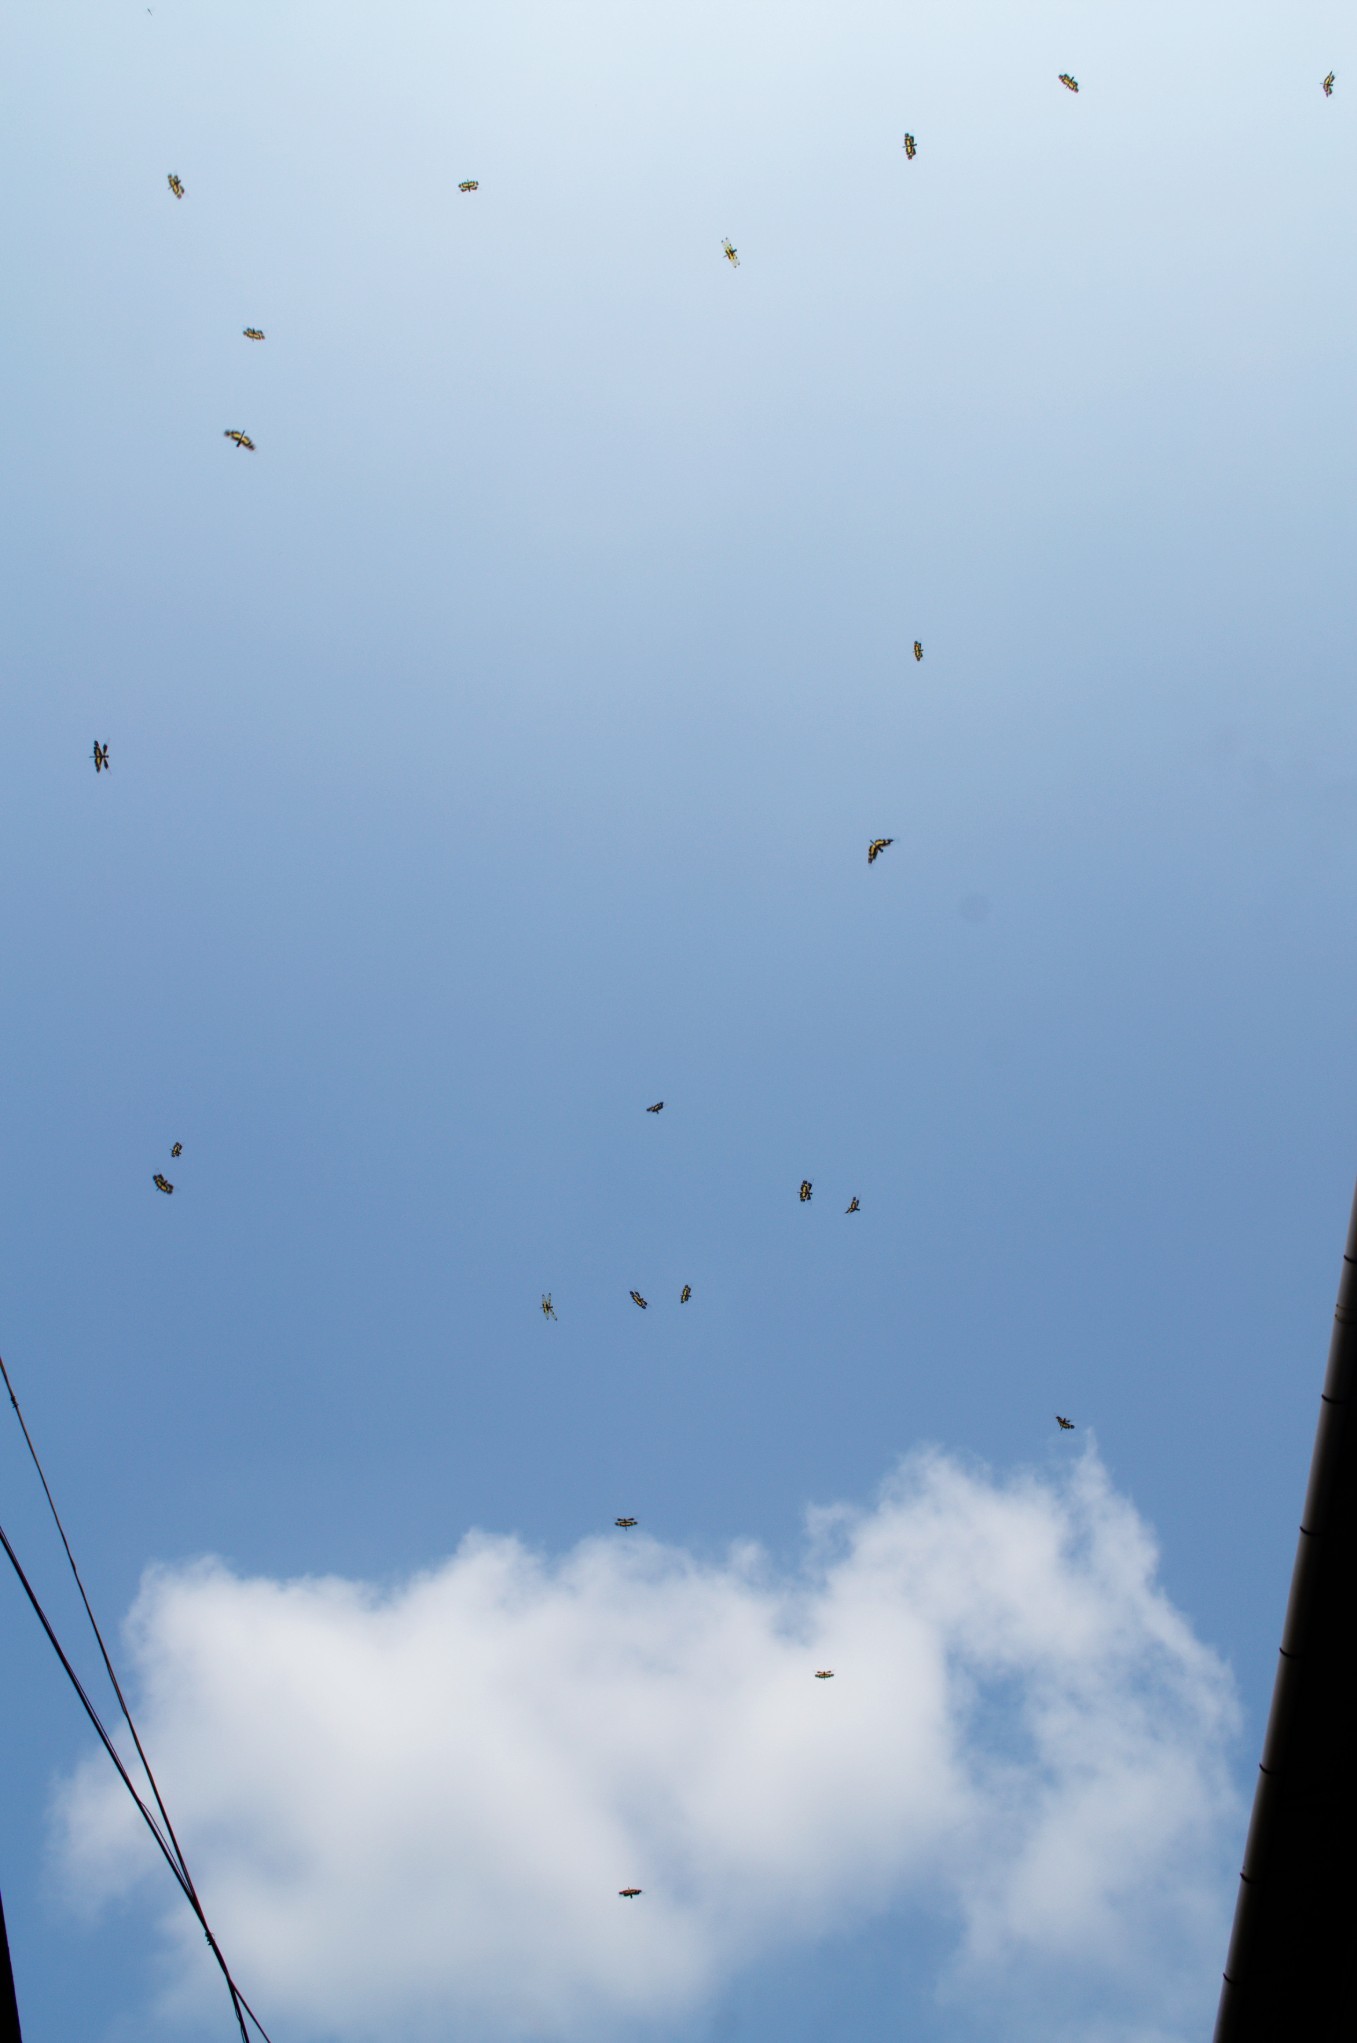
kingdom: Animalia
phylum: Arthropoda
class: Insecta
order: Odonata
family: Libellulidae
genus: Rhyothemis
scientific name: Rhyothemis variegata
